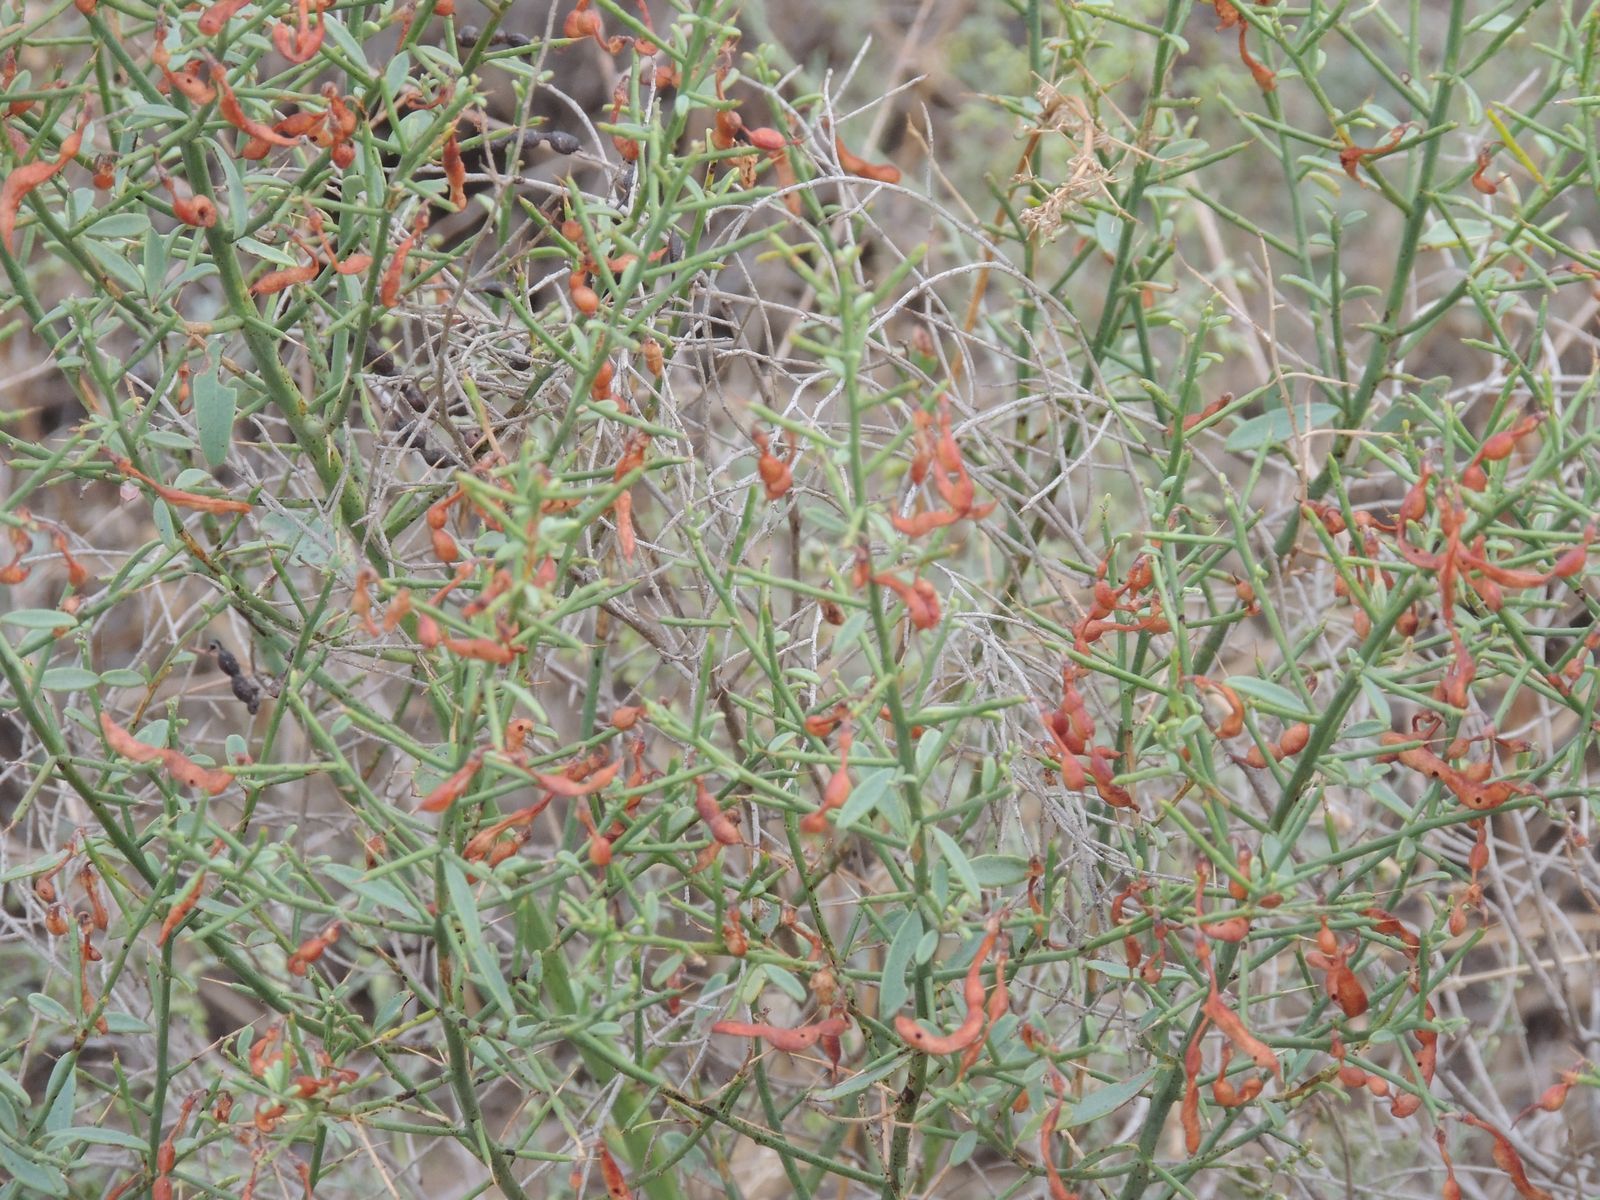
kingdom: Plantae
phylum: Tracheophyta
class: Magnoliopsida
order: Fabales
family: Fabaceae
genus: Alhagi
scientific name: Alhagi pseudalhagi
